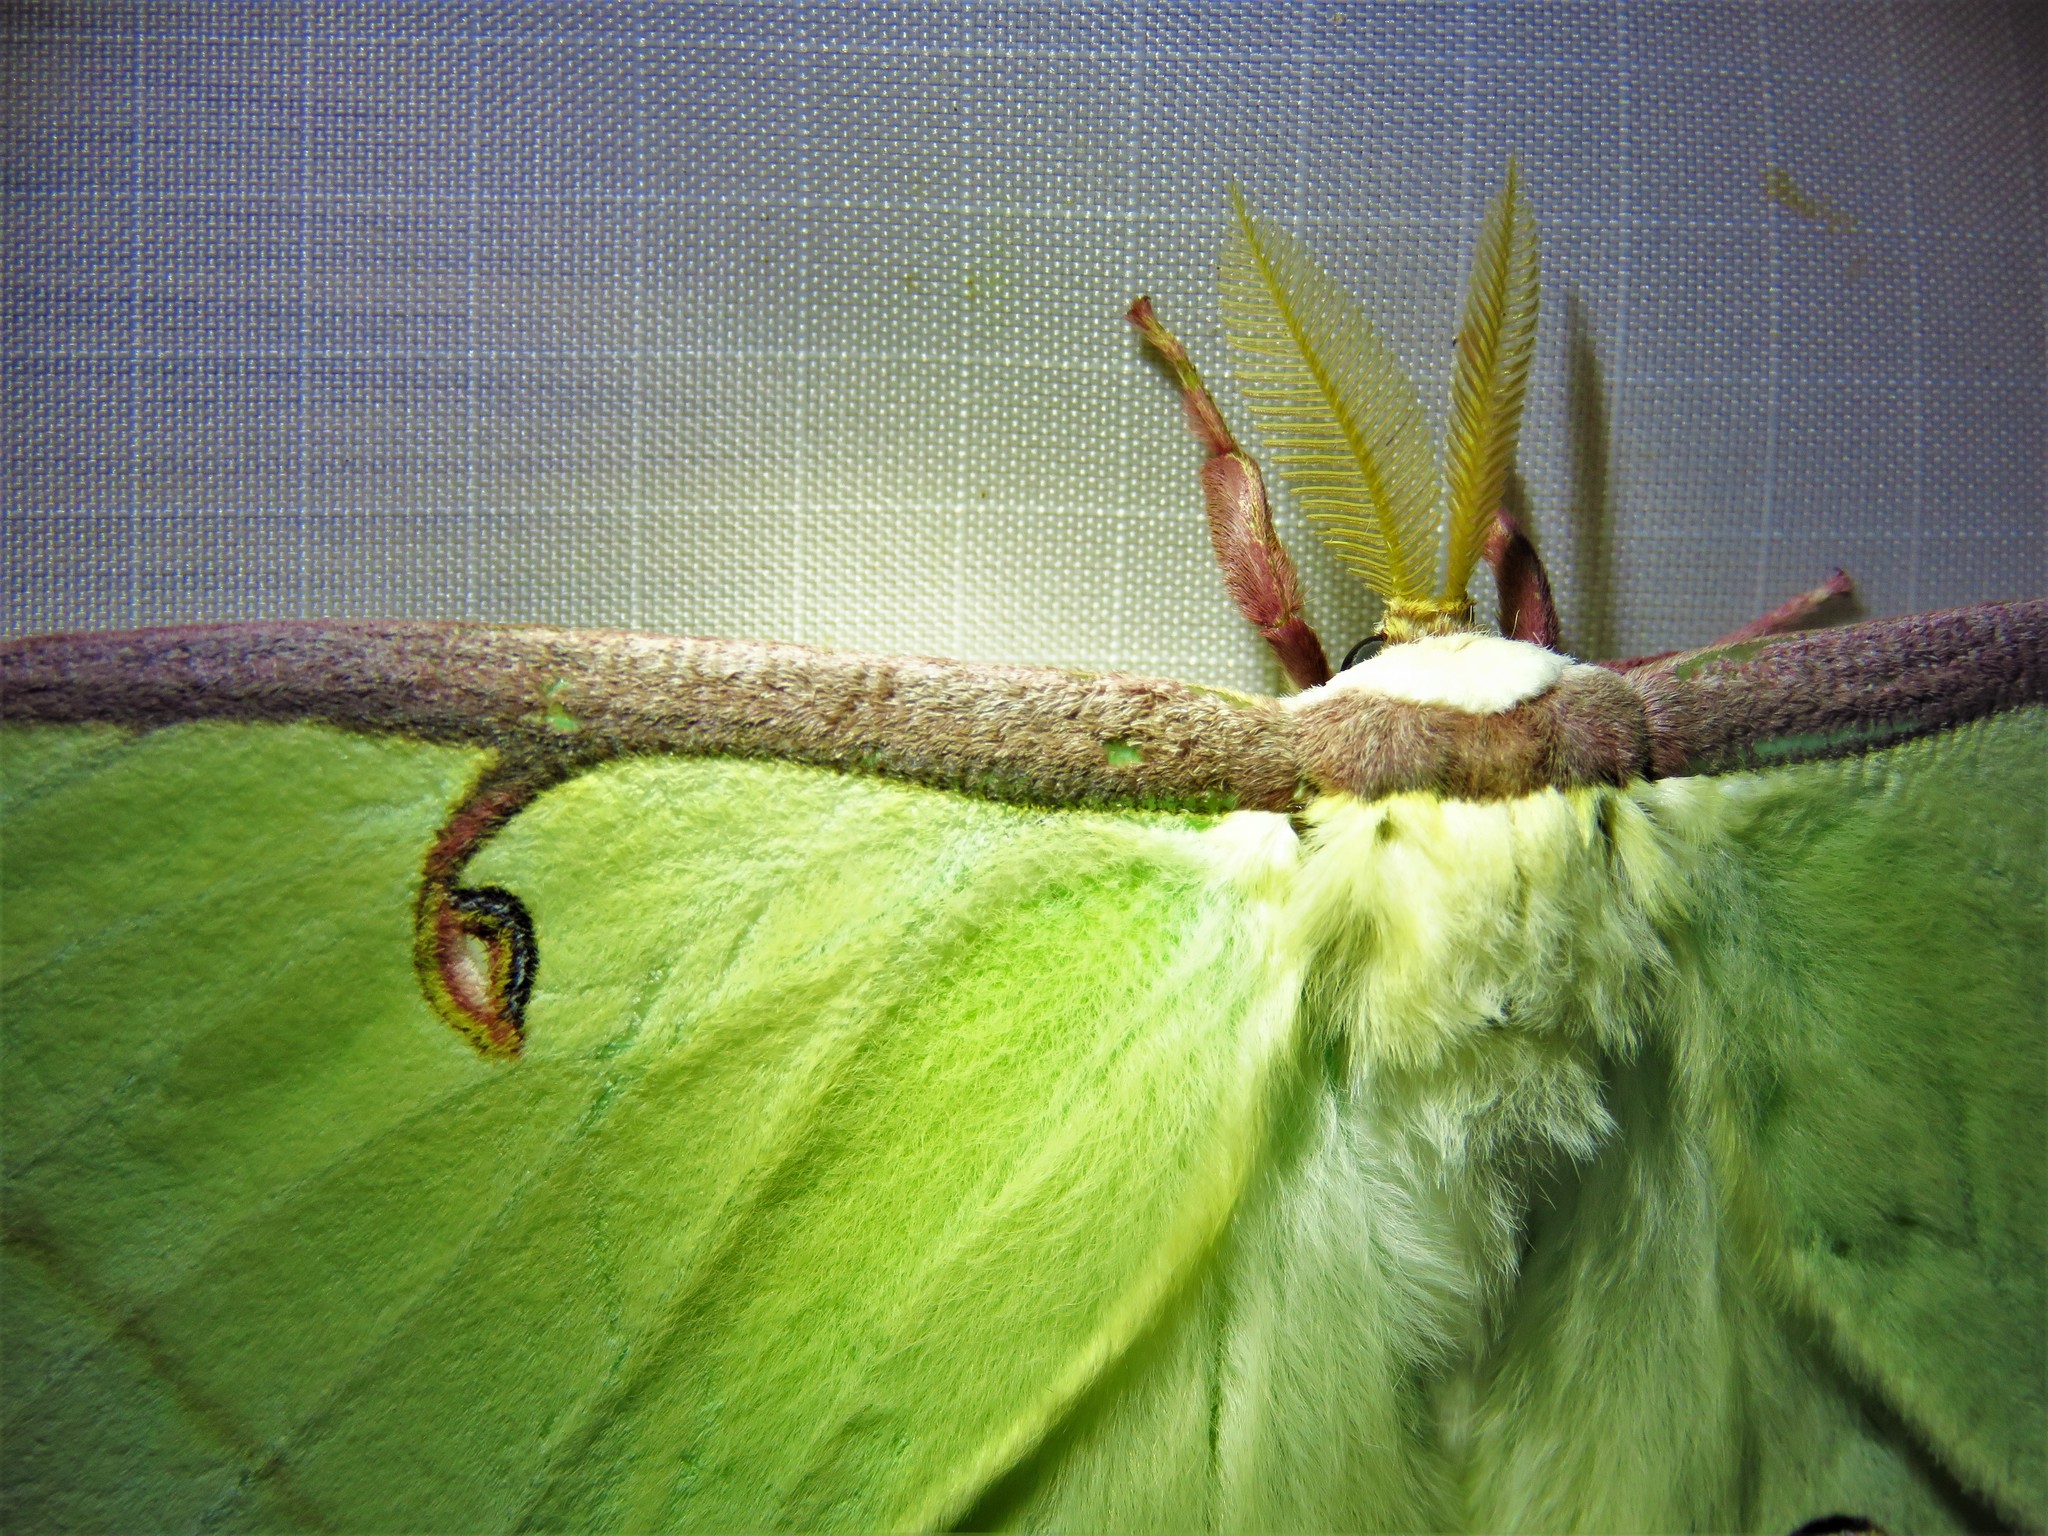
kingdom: Animalia
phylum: Arthropoda
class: Insecta
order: Lepidoptera
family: Saturniidae
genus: Actias
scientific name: Actias luna
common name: Luna moth
